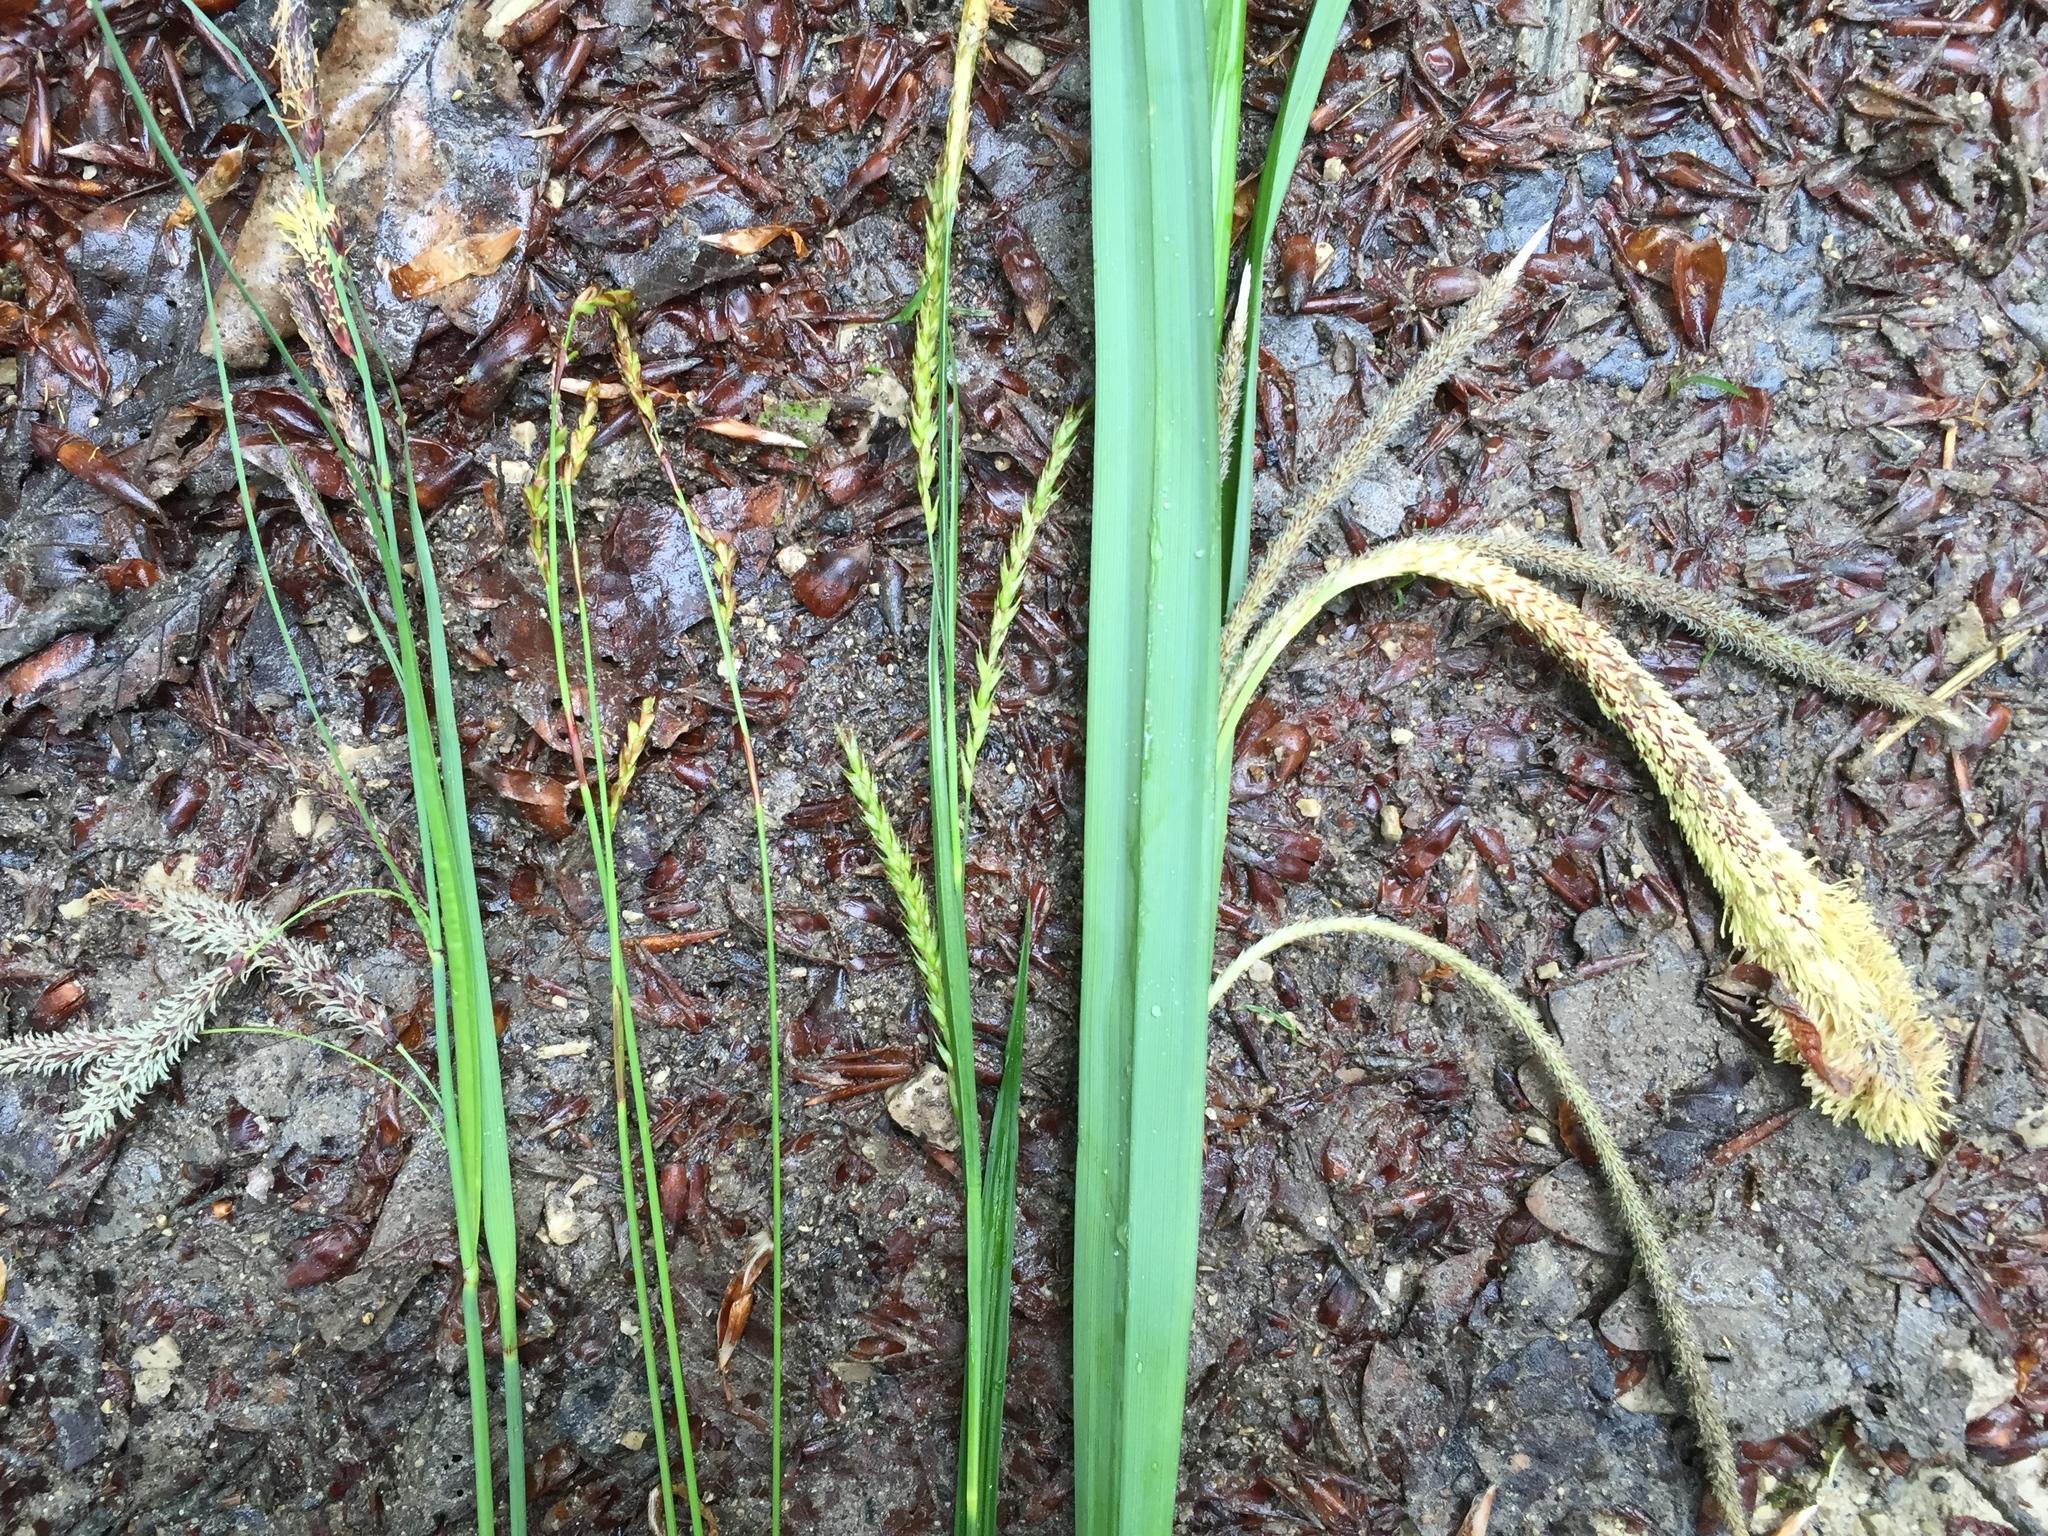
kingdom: Plantae
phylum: Tracheophyta
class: Liliopsida
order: Poales
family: Cyperaceae
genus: Carex
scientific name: Carex sylvatica
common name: Wood-sedge
